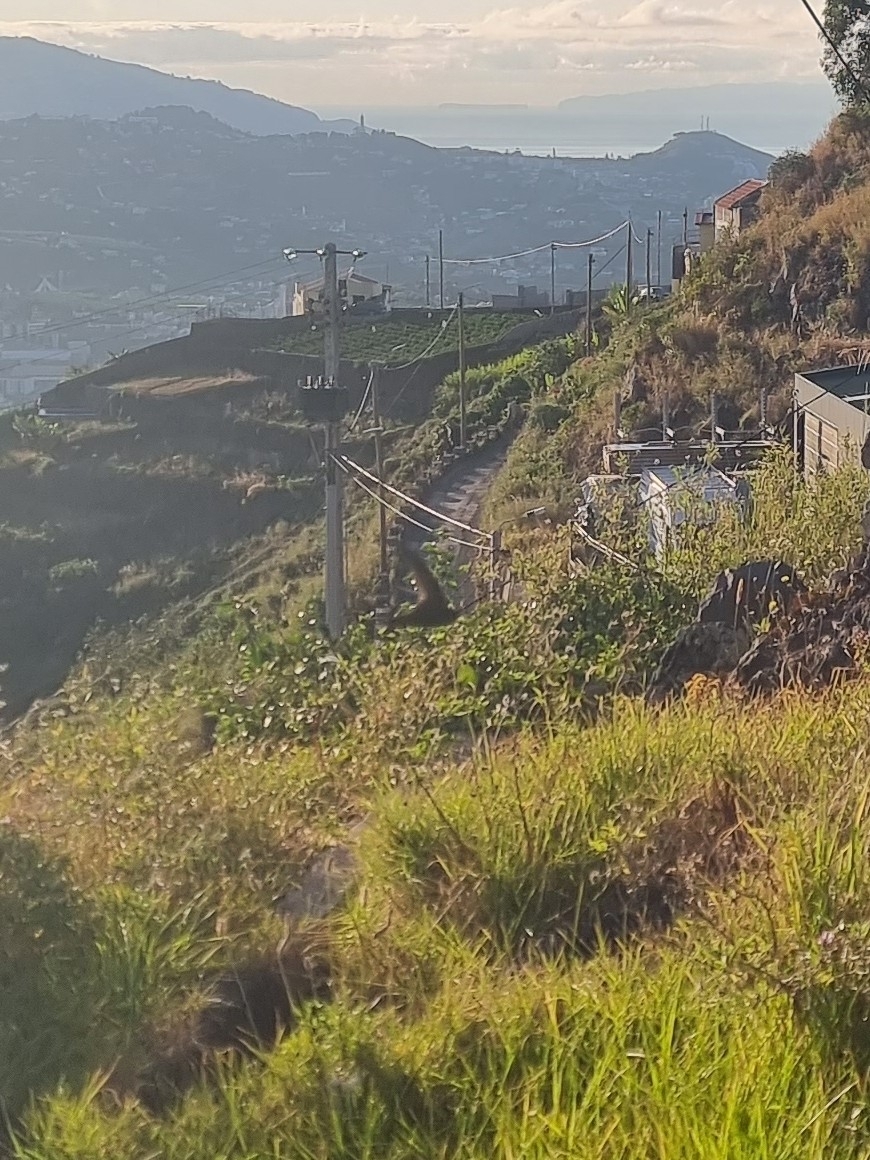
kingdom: Animalia
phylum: Chordata
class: Aves
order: Apodiformes
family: Apodidae
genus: Apus
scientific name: Apus pallidus
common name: Pallid swift
